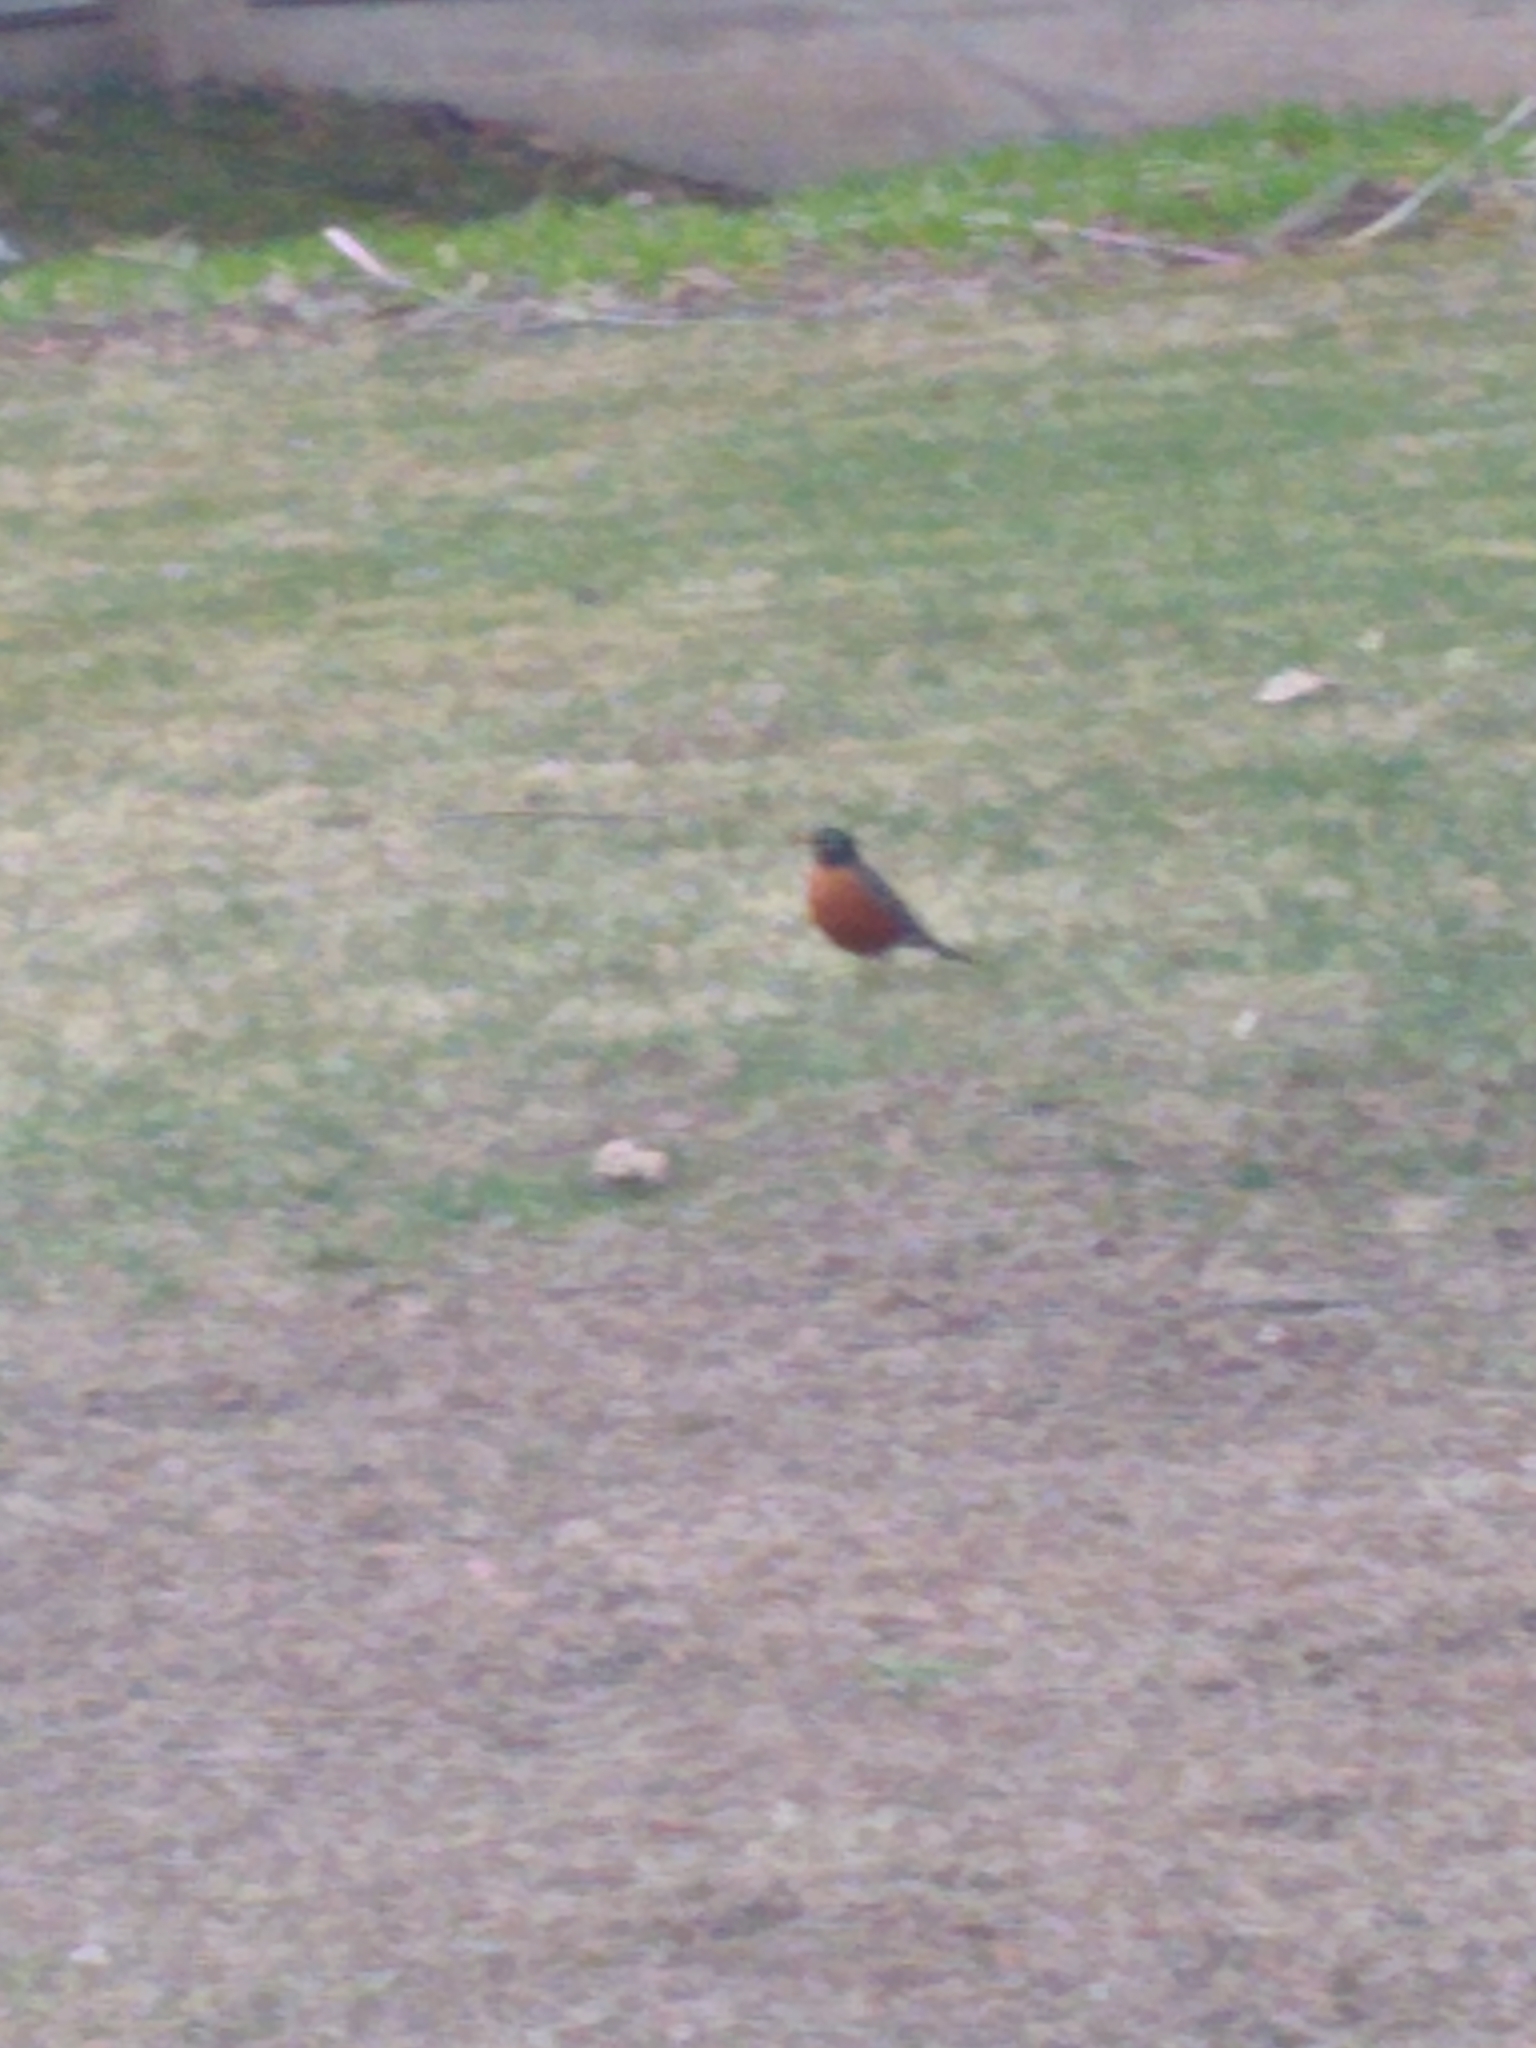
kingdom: Animalia
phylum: Chordata
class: Aves
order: Passeriformes
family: Turdidae
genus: Turdus
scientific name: Turdus migratorius
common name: American robin
